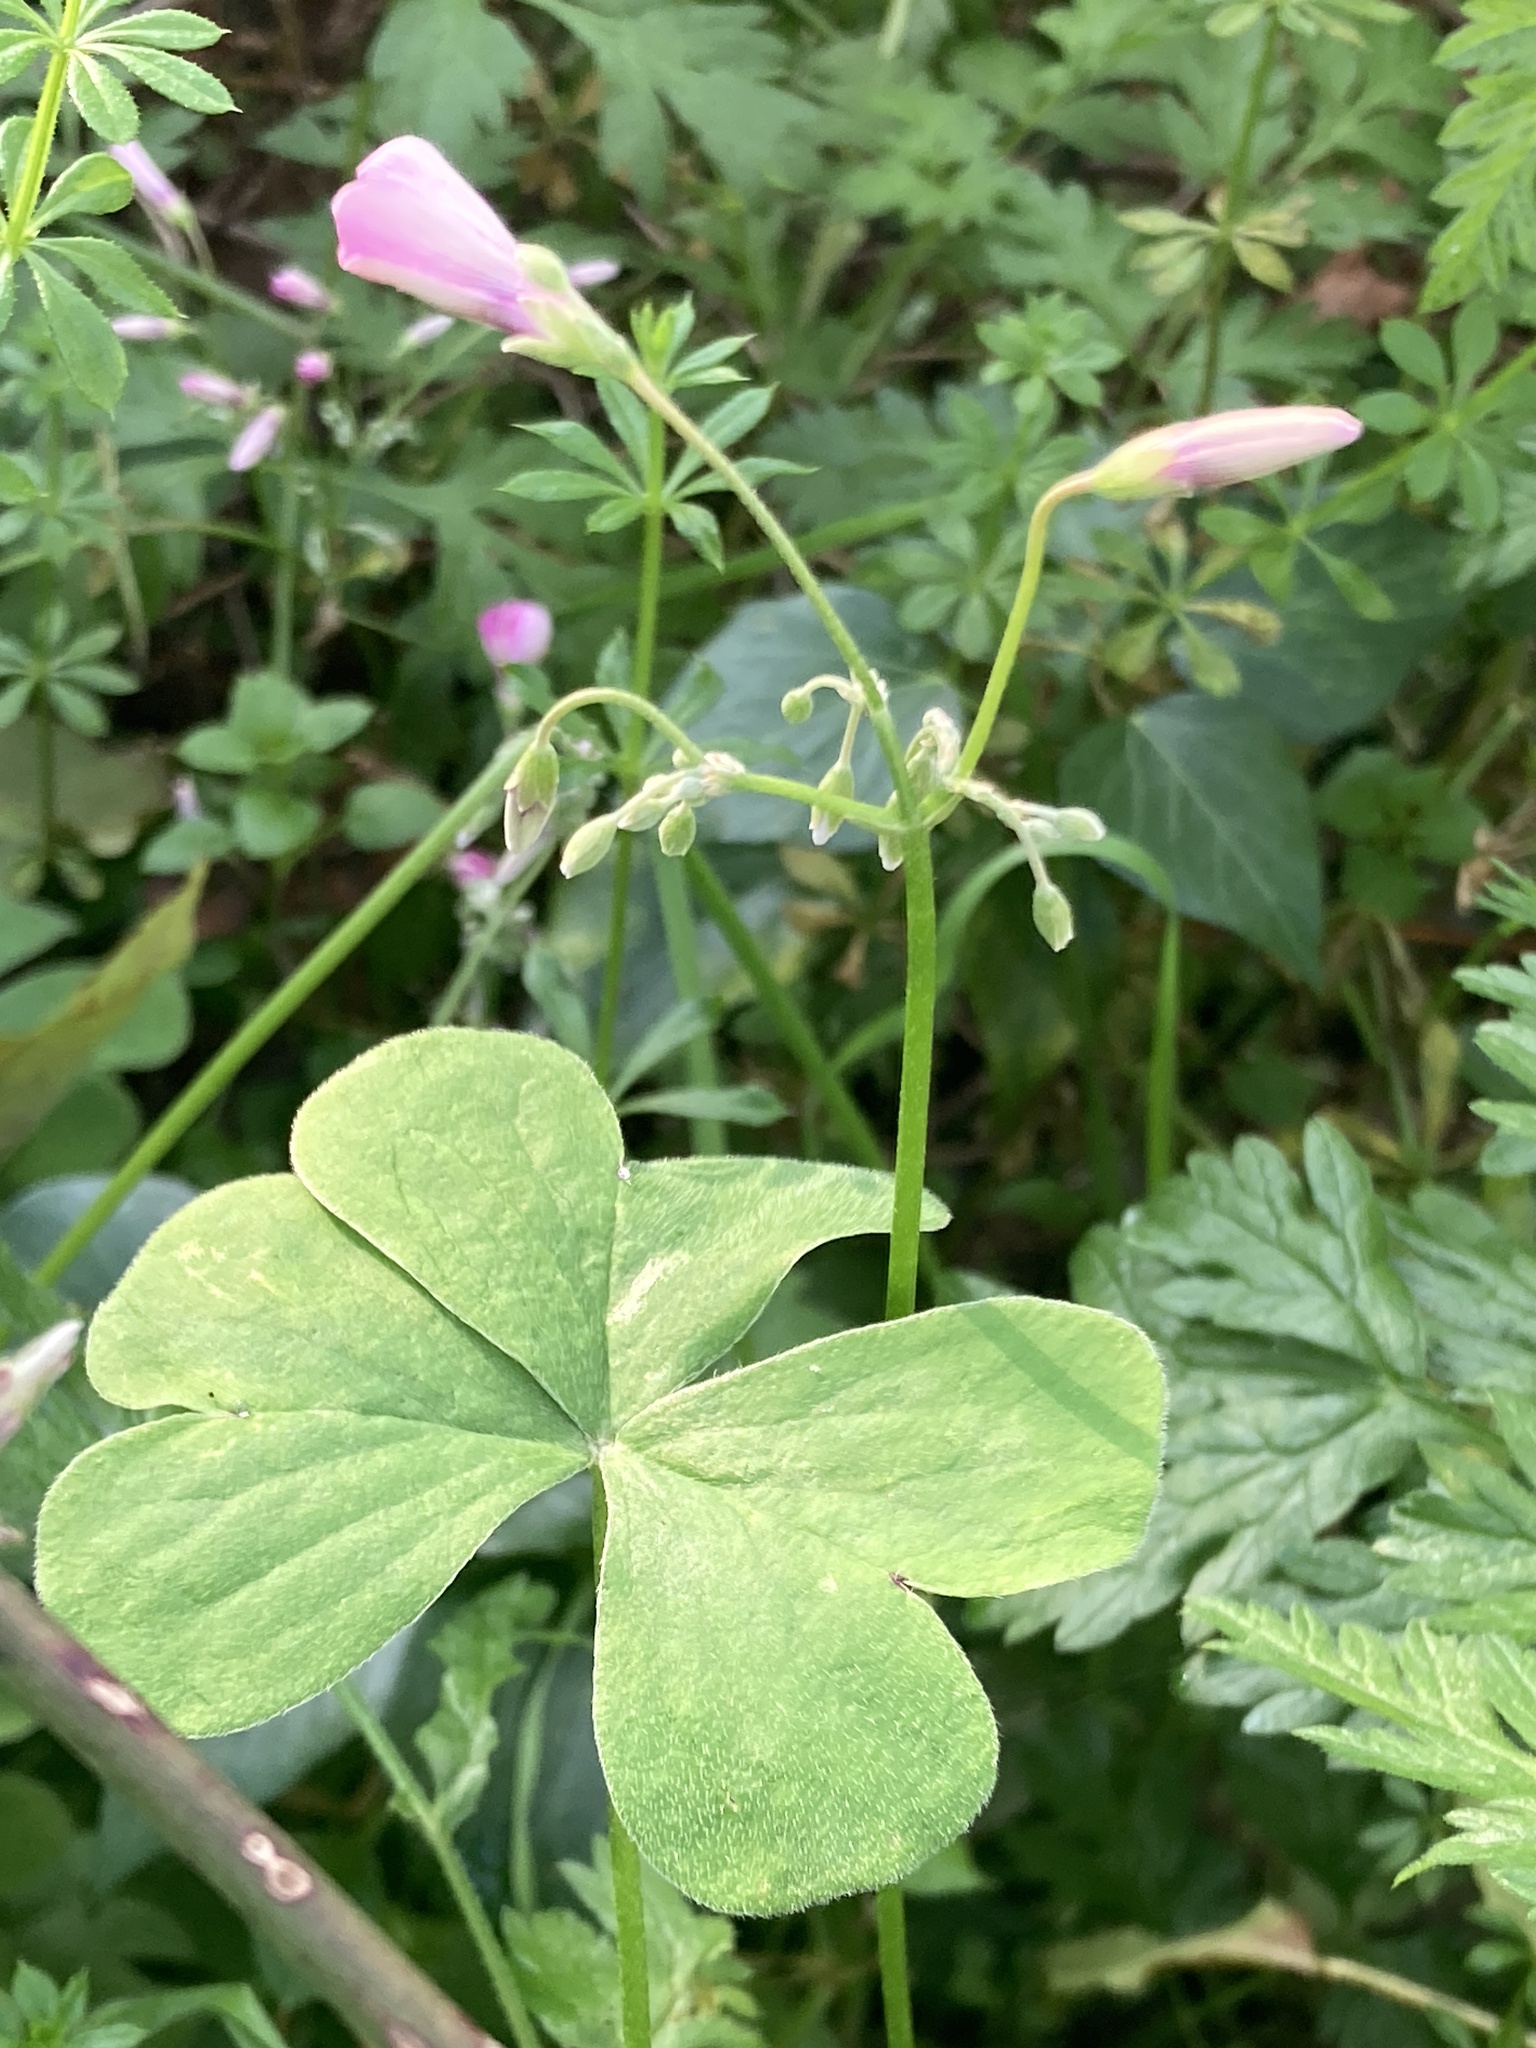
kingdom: Plantae
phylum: Tracheophyta
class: Magnoliopsida
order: Oxalidales
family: Oxalidaceae
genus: Oxalis
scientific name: Oxalis articulata
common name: Pink-sorrel
